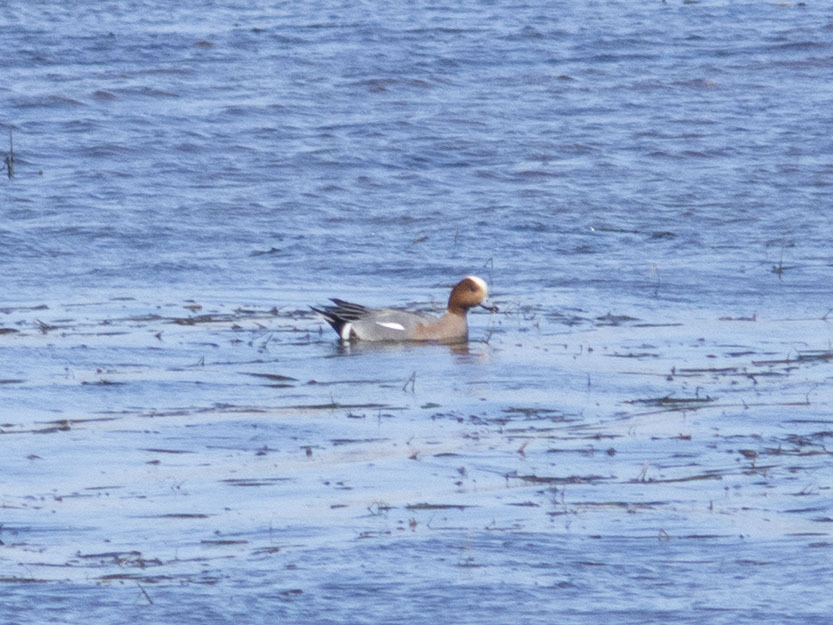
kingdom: Animalia
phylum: Chordata
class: Aves
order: Anseriformes
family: Anatidae
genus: Mareca
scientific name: Mareca penelope
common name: Eurasian wigeon
